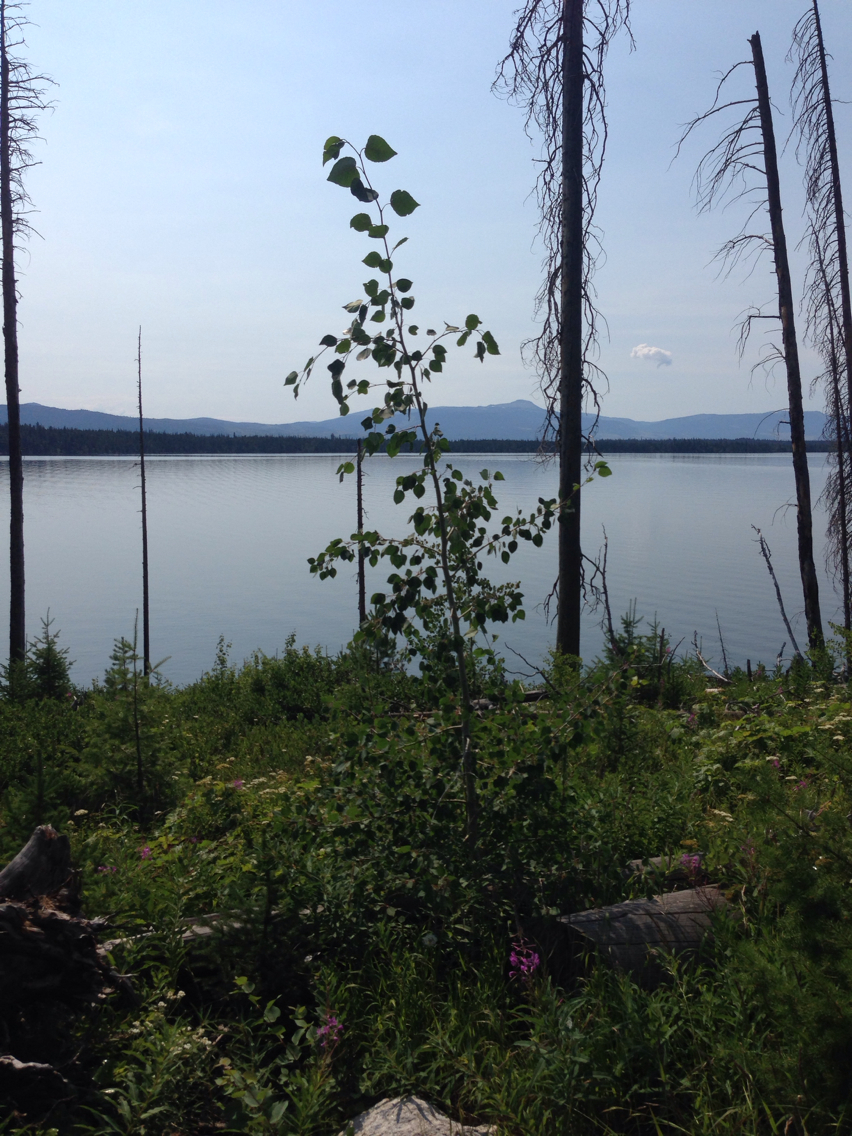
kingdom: Plantae
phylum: Tracheophyta
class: Magnoliopsida
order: Malpighiales
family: Salicaceae
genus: Populus
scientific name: Populus tremuloides
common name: Quaking aspen
